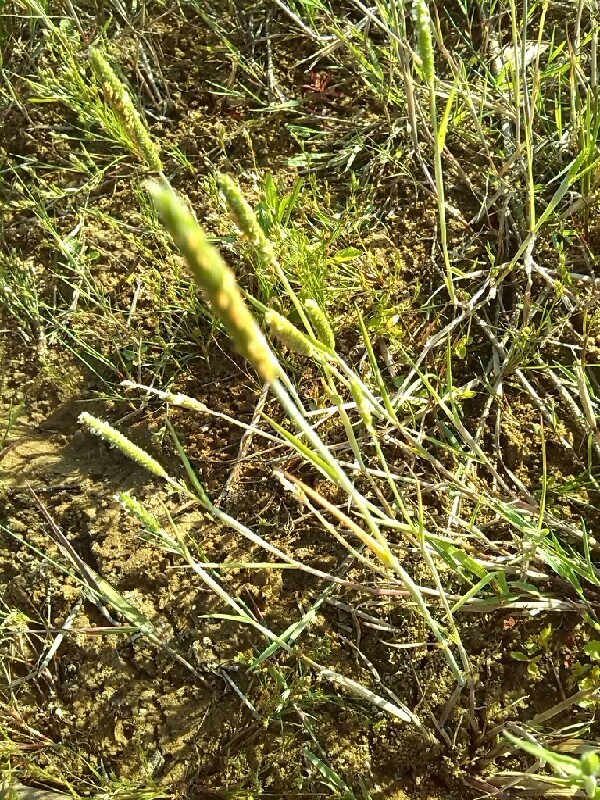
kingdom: Plantae
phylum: Tracheophyta
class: Liliopsida
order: Poales
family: Poaceae
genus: Alopecurus
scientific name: Alopecurus aequalis
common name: Orange foxtail
